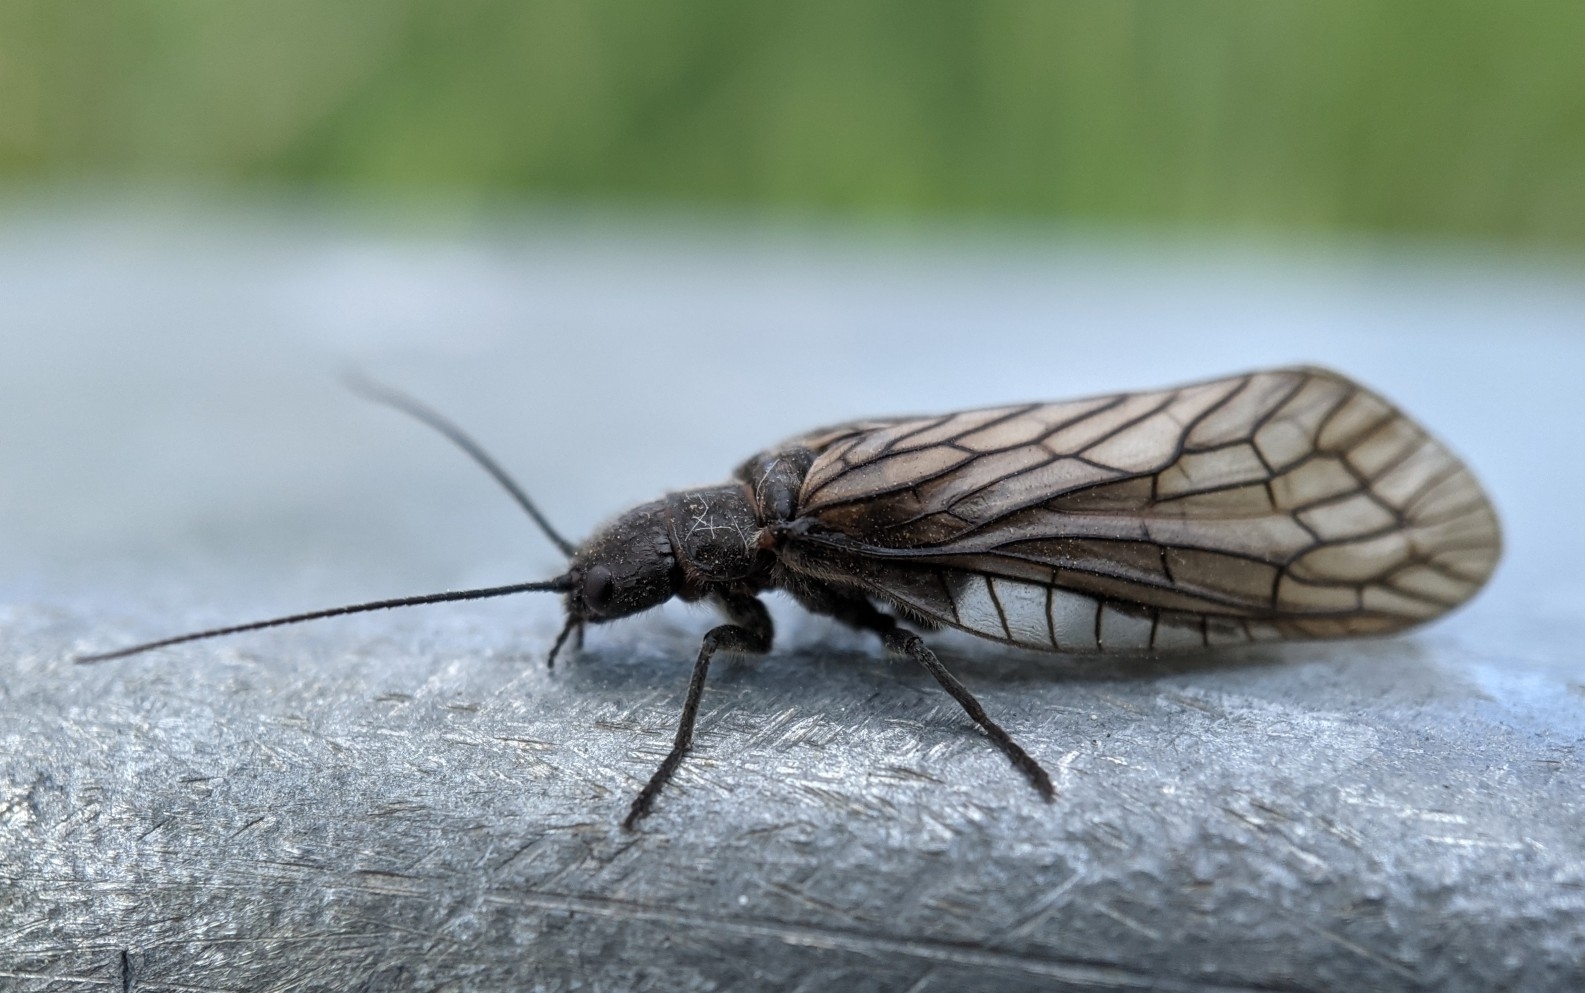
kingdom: Animalia
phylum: Arthropoda
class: Insecta
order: Megaloptera
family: Sialidae
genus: Sialis
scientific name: Sialis
